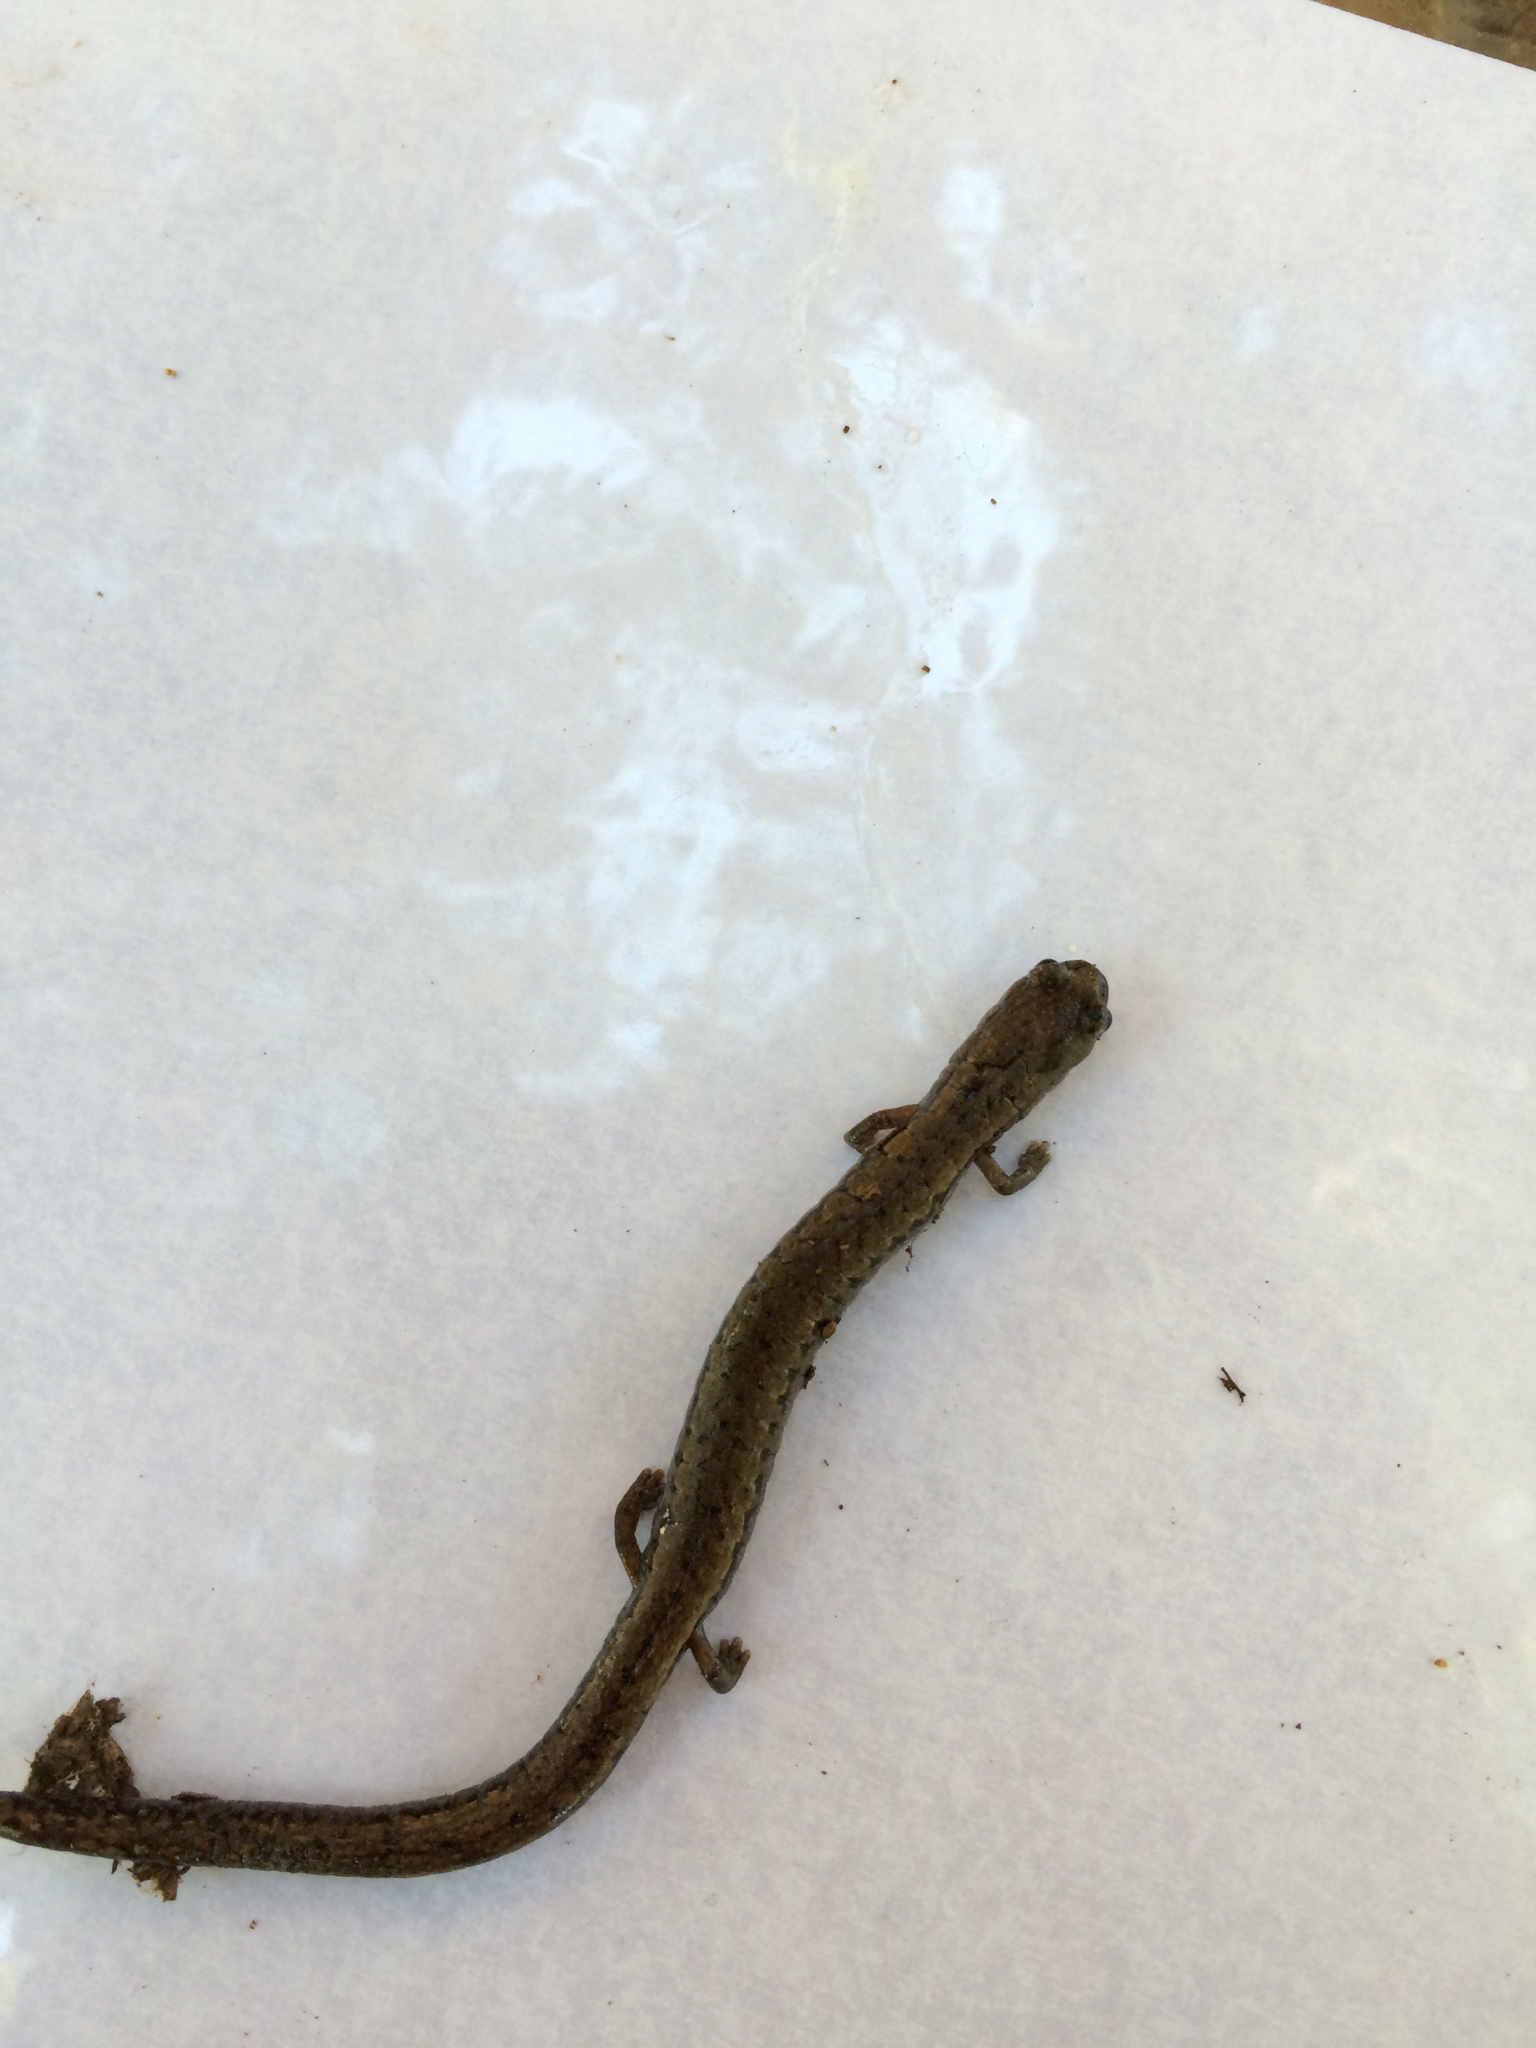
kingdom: Animalia
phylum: Chordata
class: Amphibia
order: Caudata
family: Plethodontidae
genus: Batrachoseps
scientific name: Batrachoseps attenuatus
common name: California slender salamander
